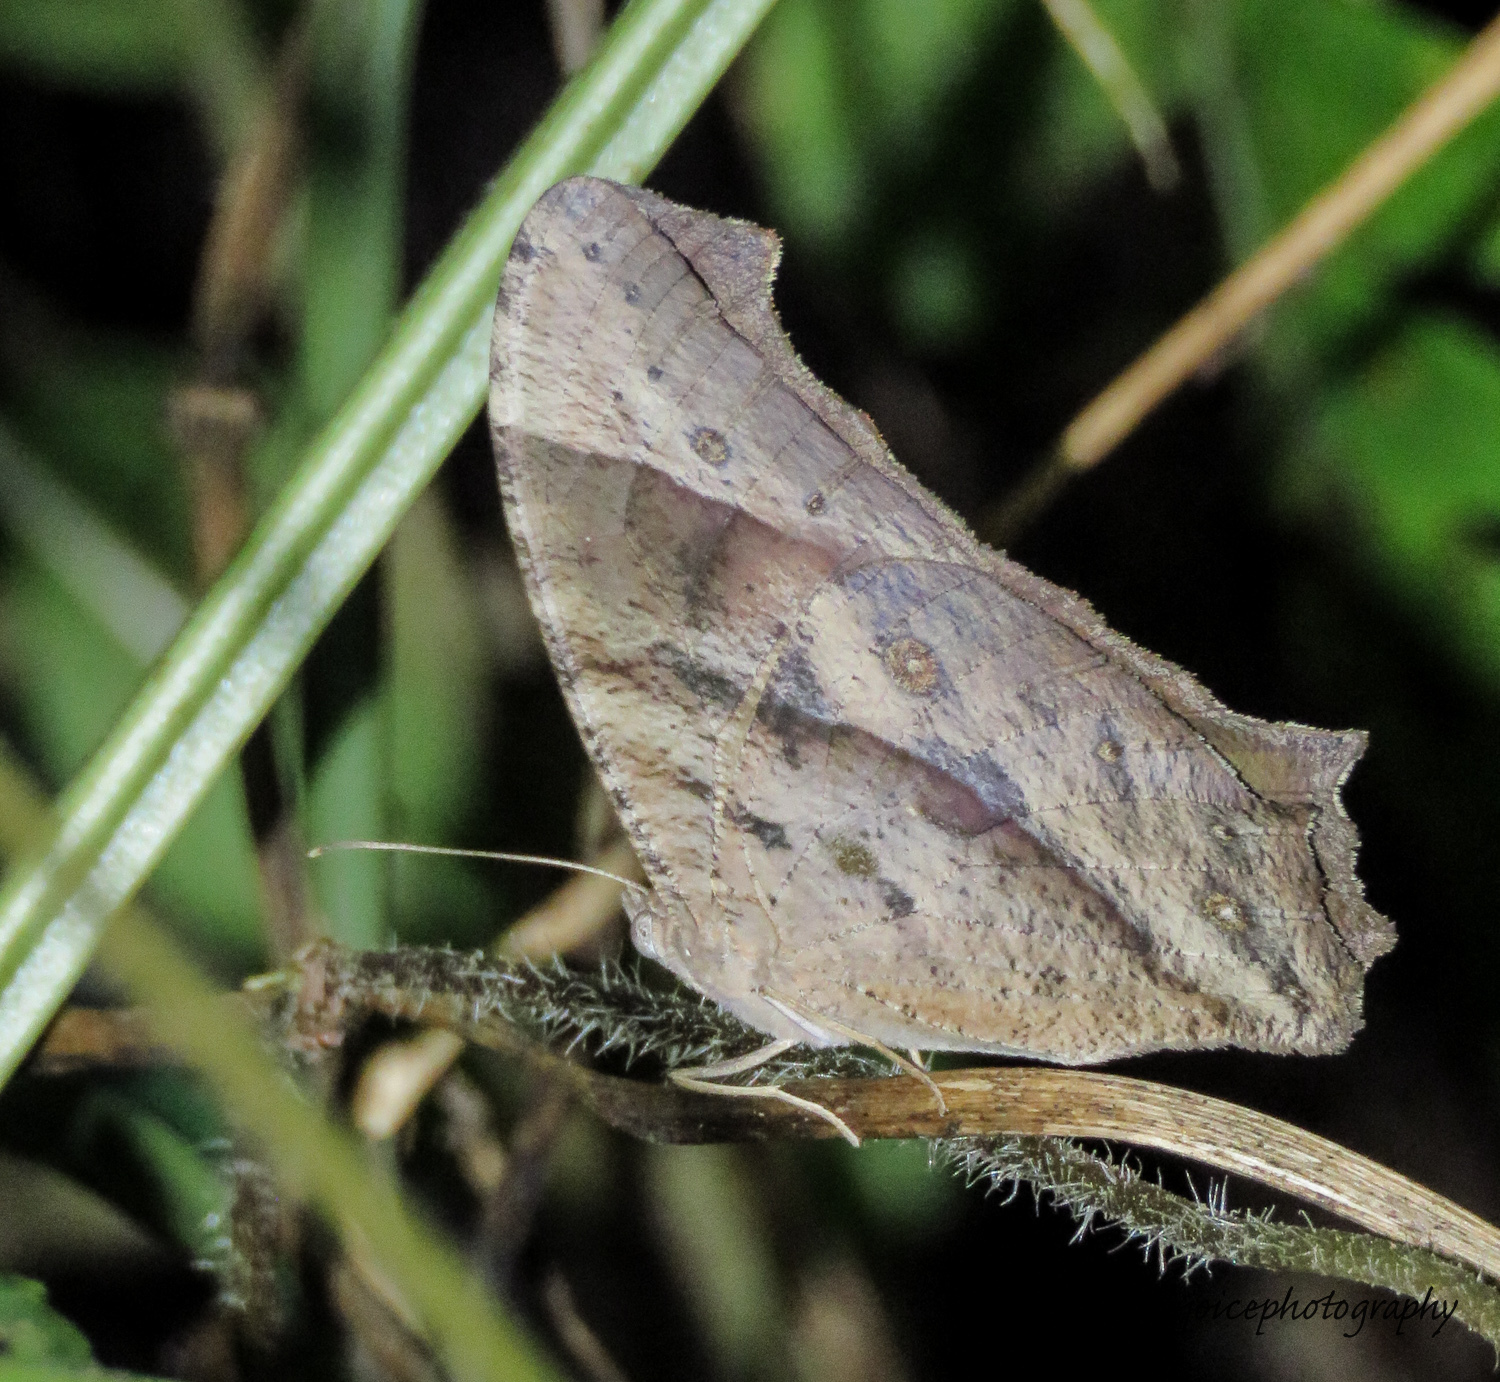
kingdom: Animalia
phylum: Arthropoda
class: Insecta
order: Lepidoptera
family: Nymphalidae
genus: Melanitis
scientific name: Melanitis leda
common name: Twilight brown
